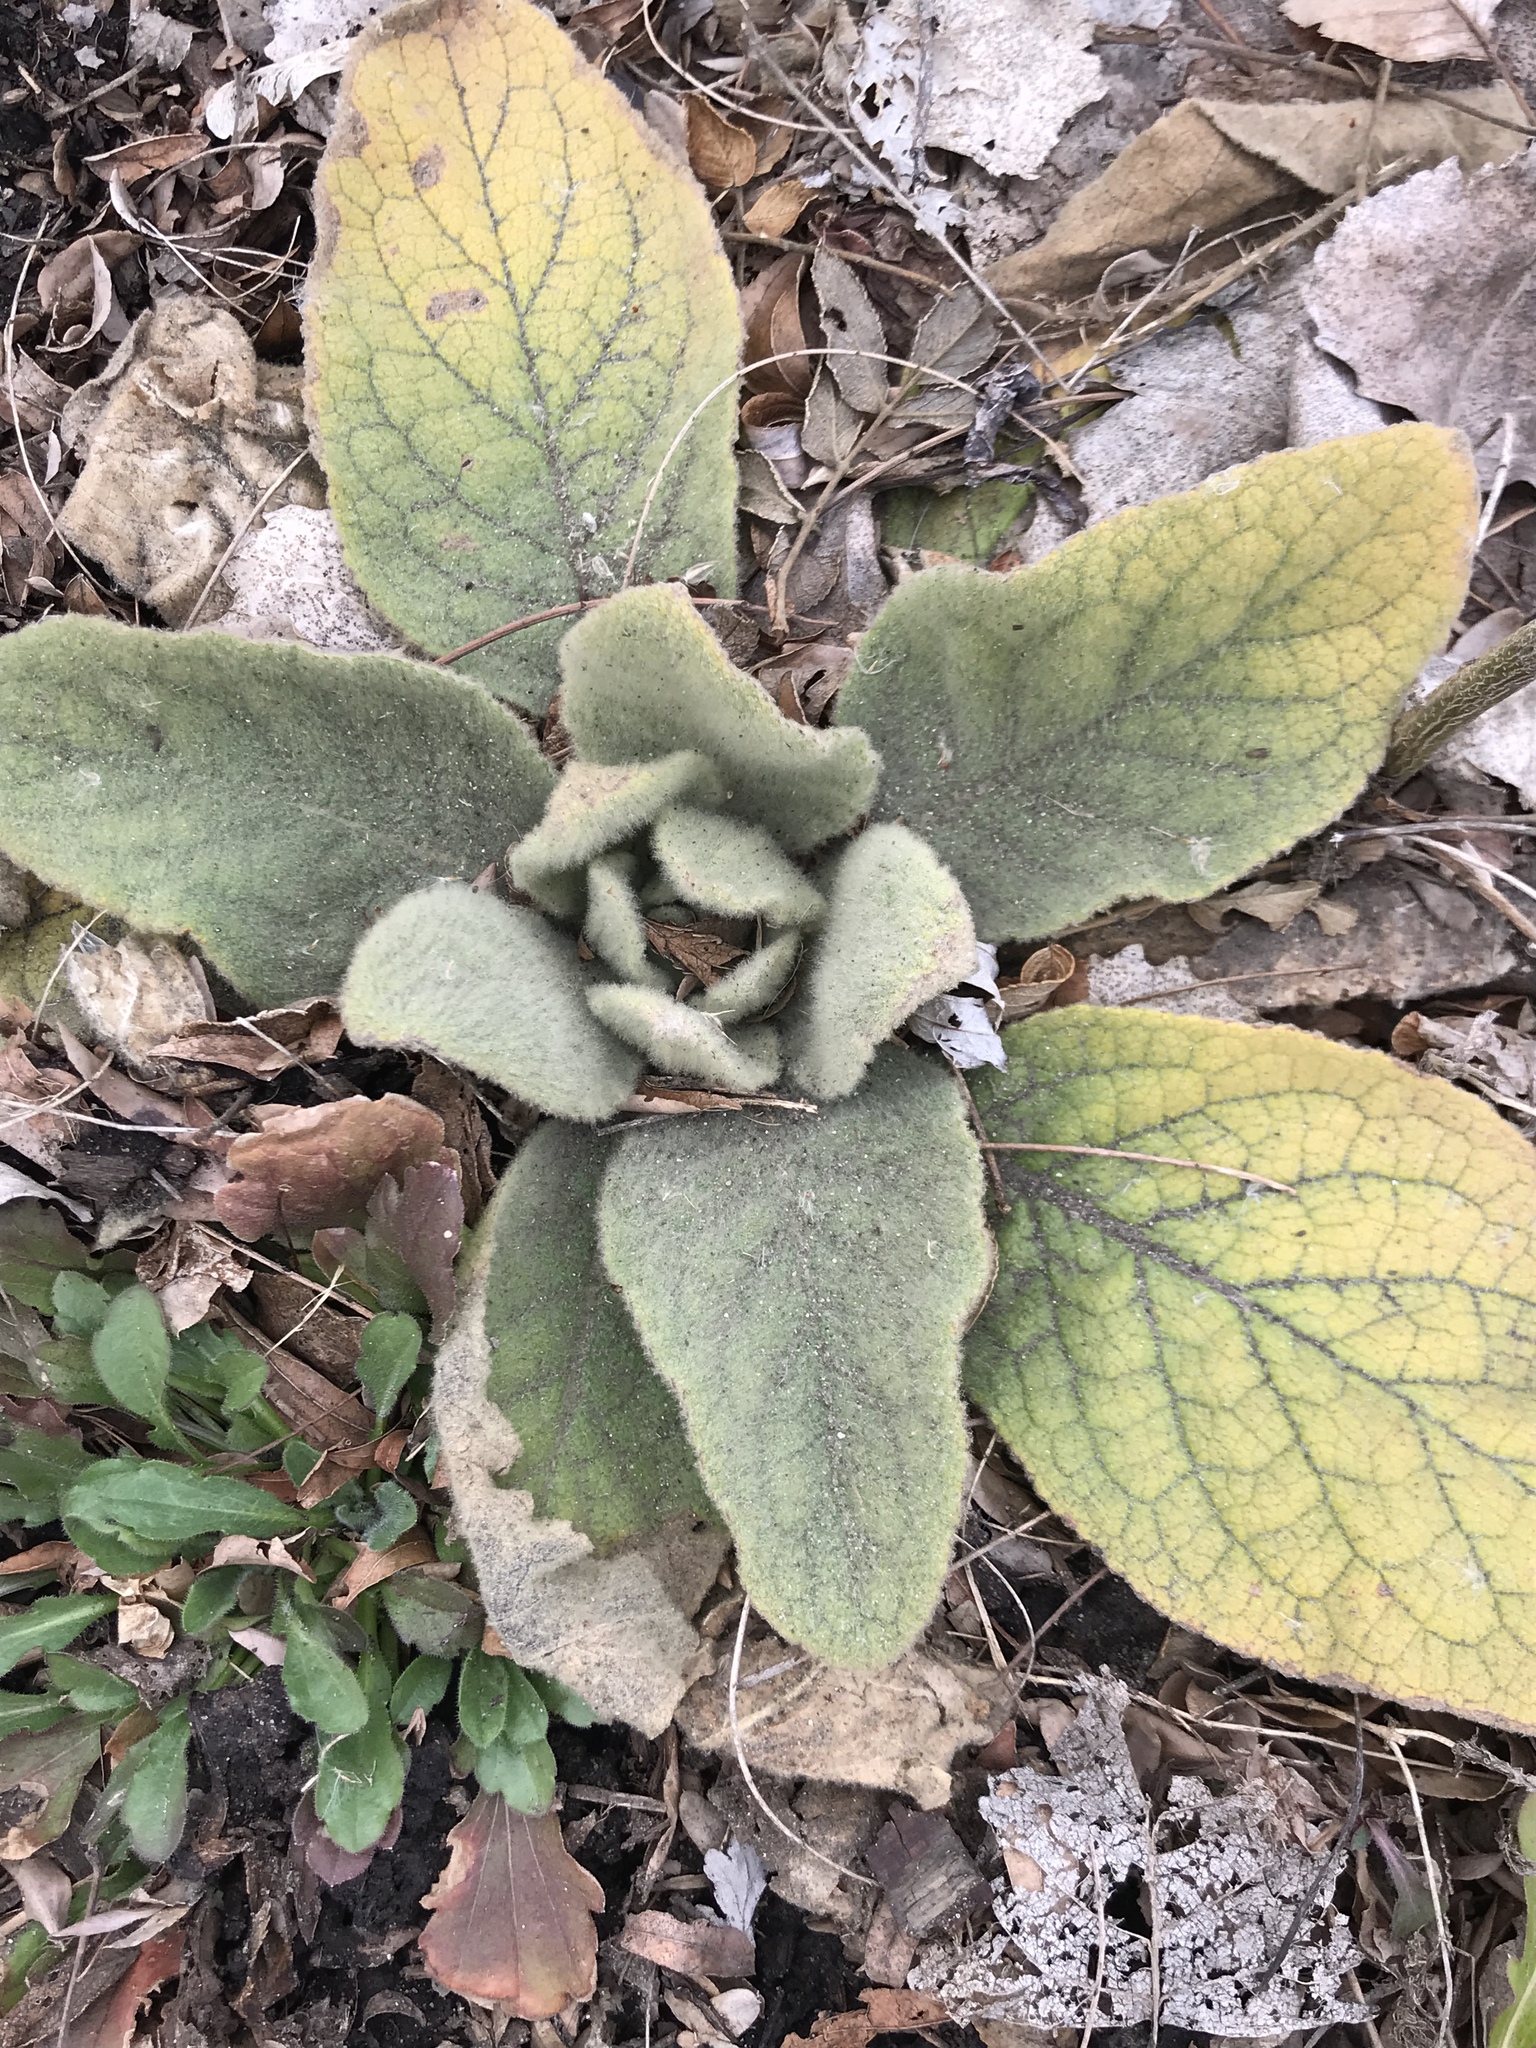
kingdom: Plantae
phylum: Tracheophyta
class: Magnoliopsida
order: Lamiales
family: Scrophulariaceae
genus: Verbascum
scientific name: Verbascum thapsus
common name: Common mullein
